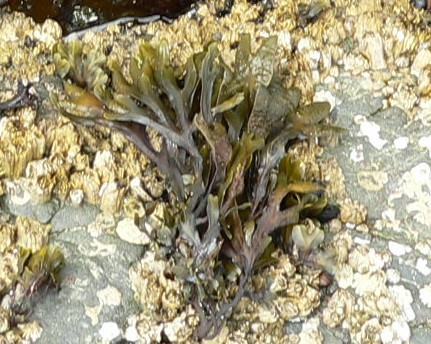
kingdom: Chromista
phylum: Ochrophyta
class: Phaeophyceae
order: Fucales
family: Fucaceae
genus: Fucus
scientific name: Fucus distichus
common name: Rockweed
